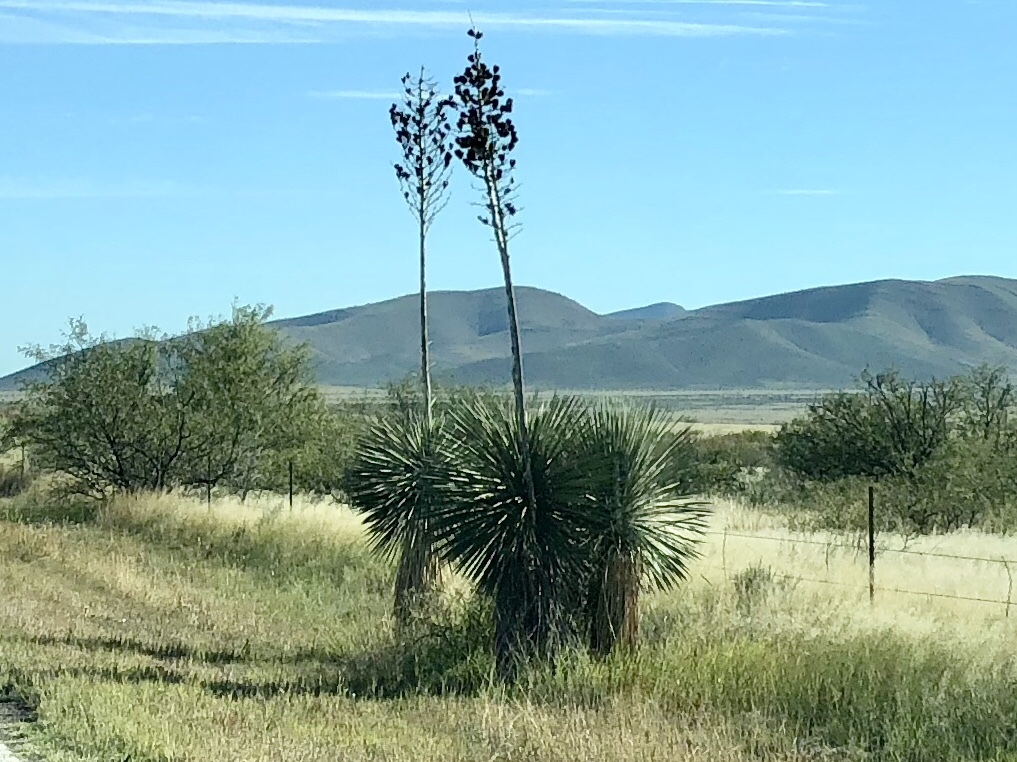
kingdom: Plantae
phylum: Tracheophyta
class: Liliopsida
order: Asparagales
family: Asparagaceae
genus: Yucca
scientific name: Yucca elata
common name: Palmella
